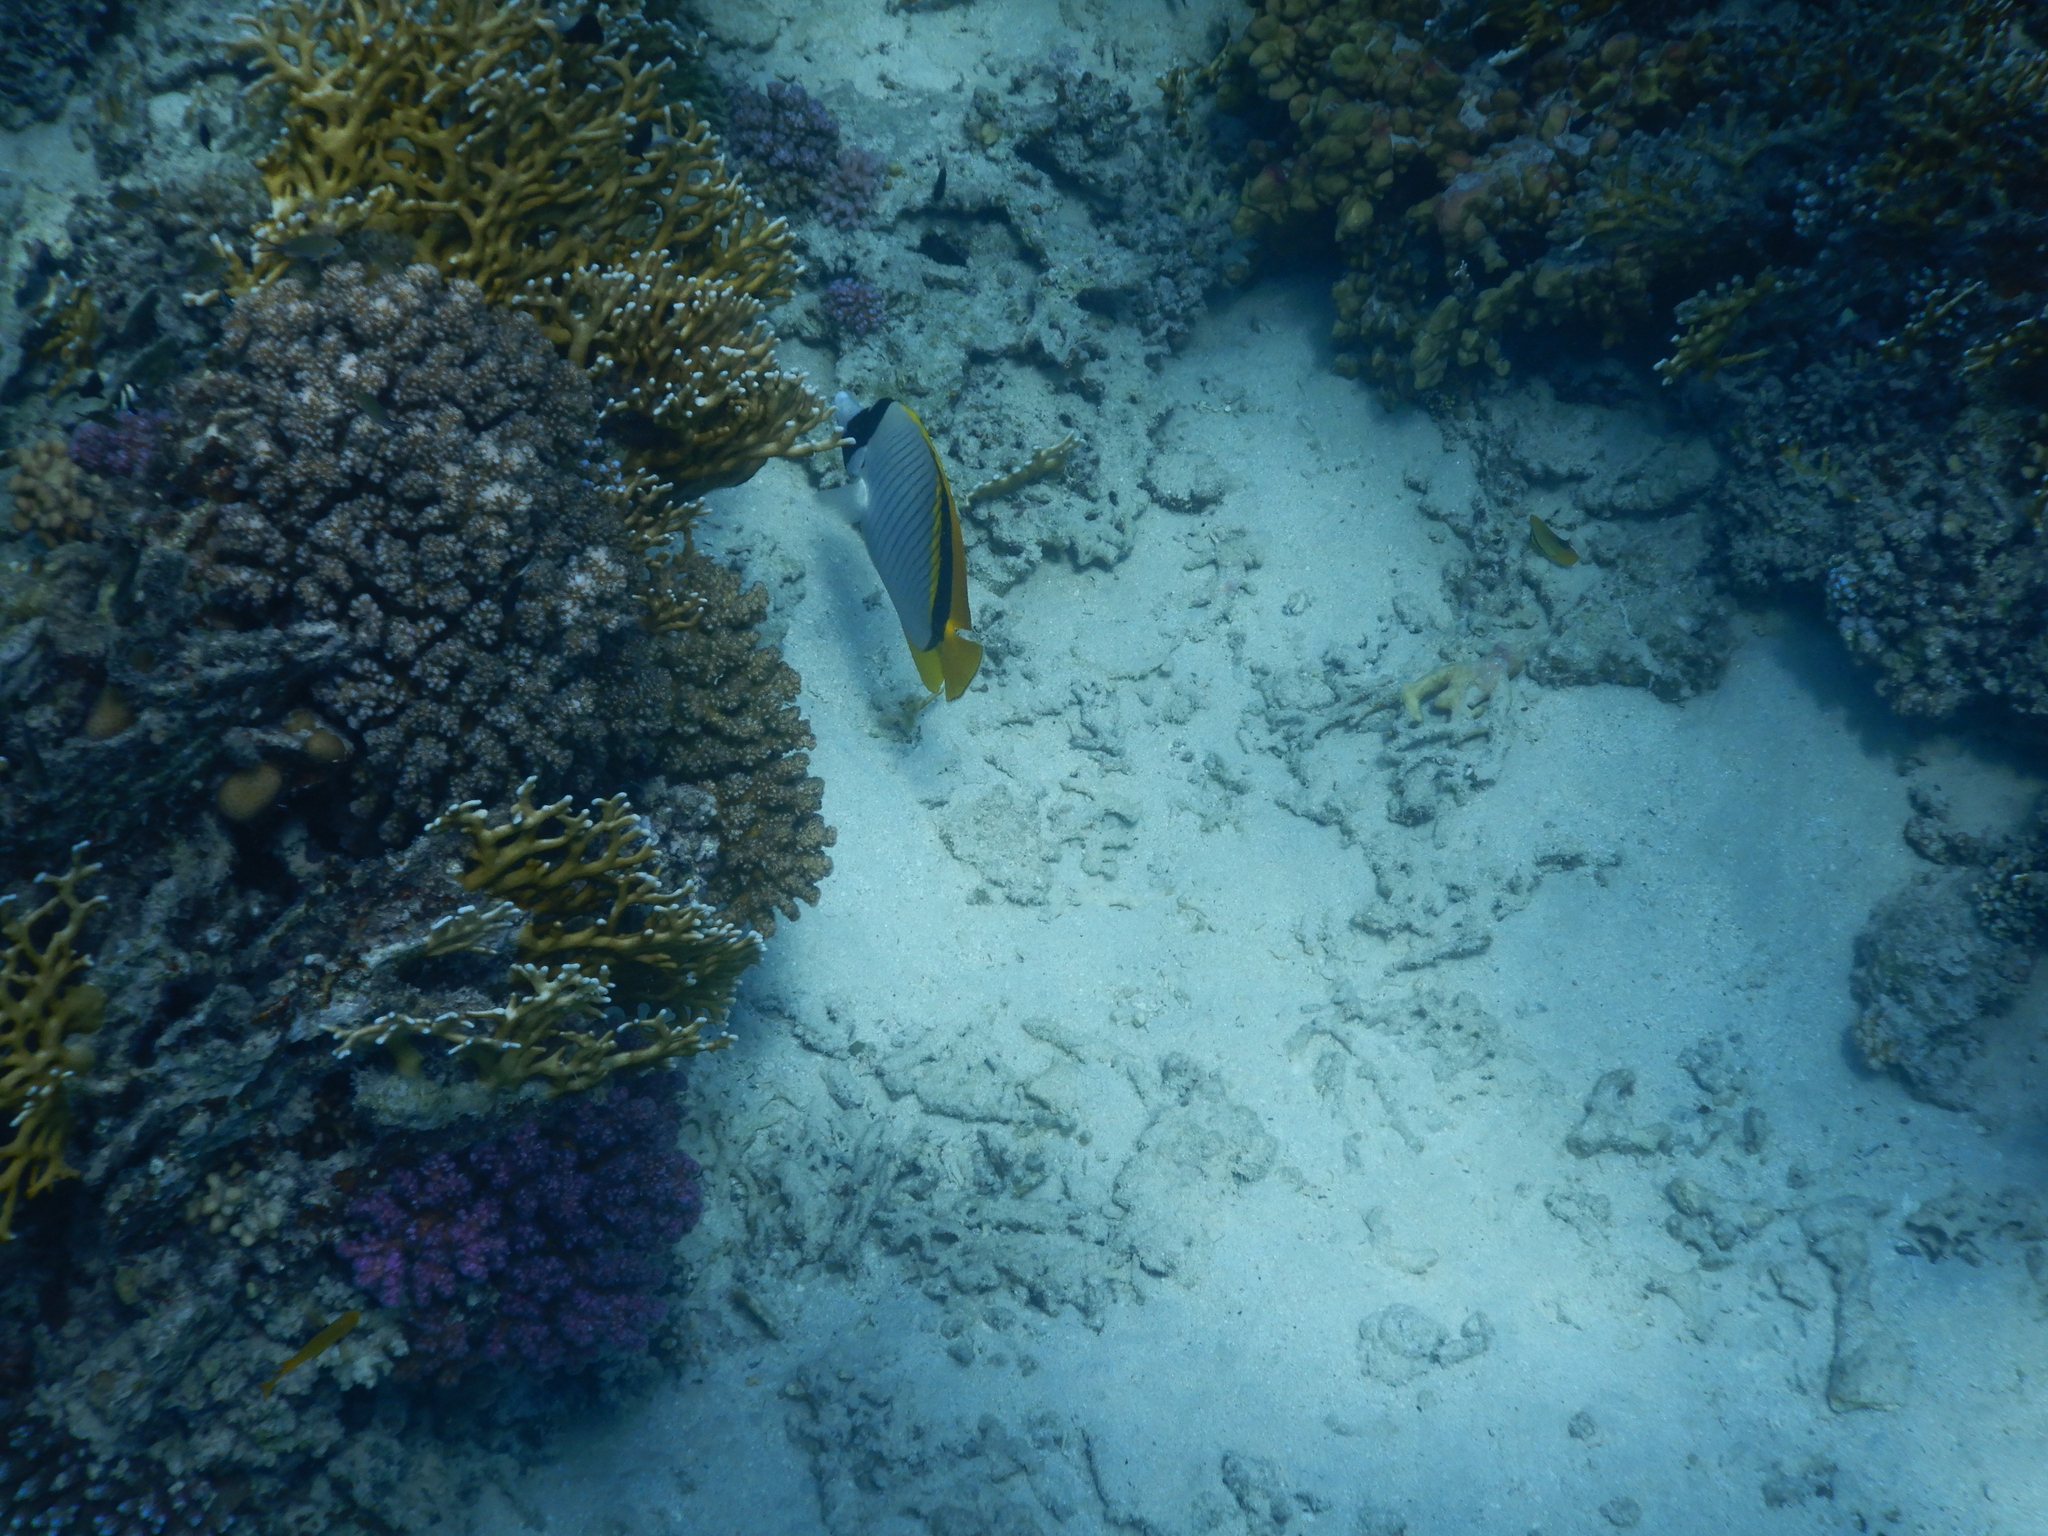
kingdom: Animalia
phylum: Chordata
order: Perciformes
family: Chaetodontidae
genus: Chaetodon
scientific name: Chaetodon lineolatus
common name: Lined butterflyfish
